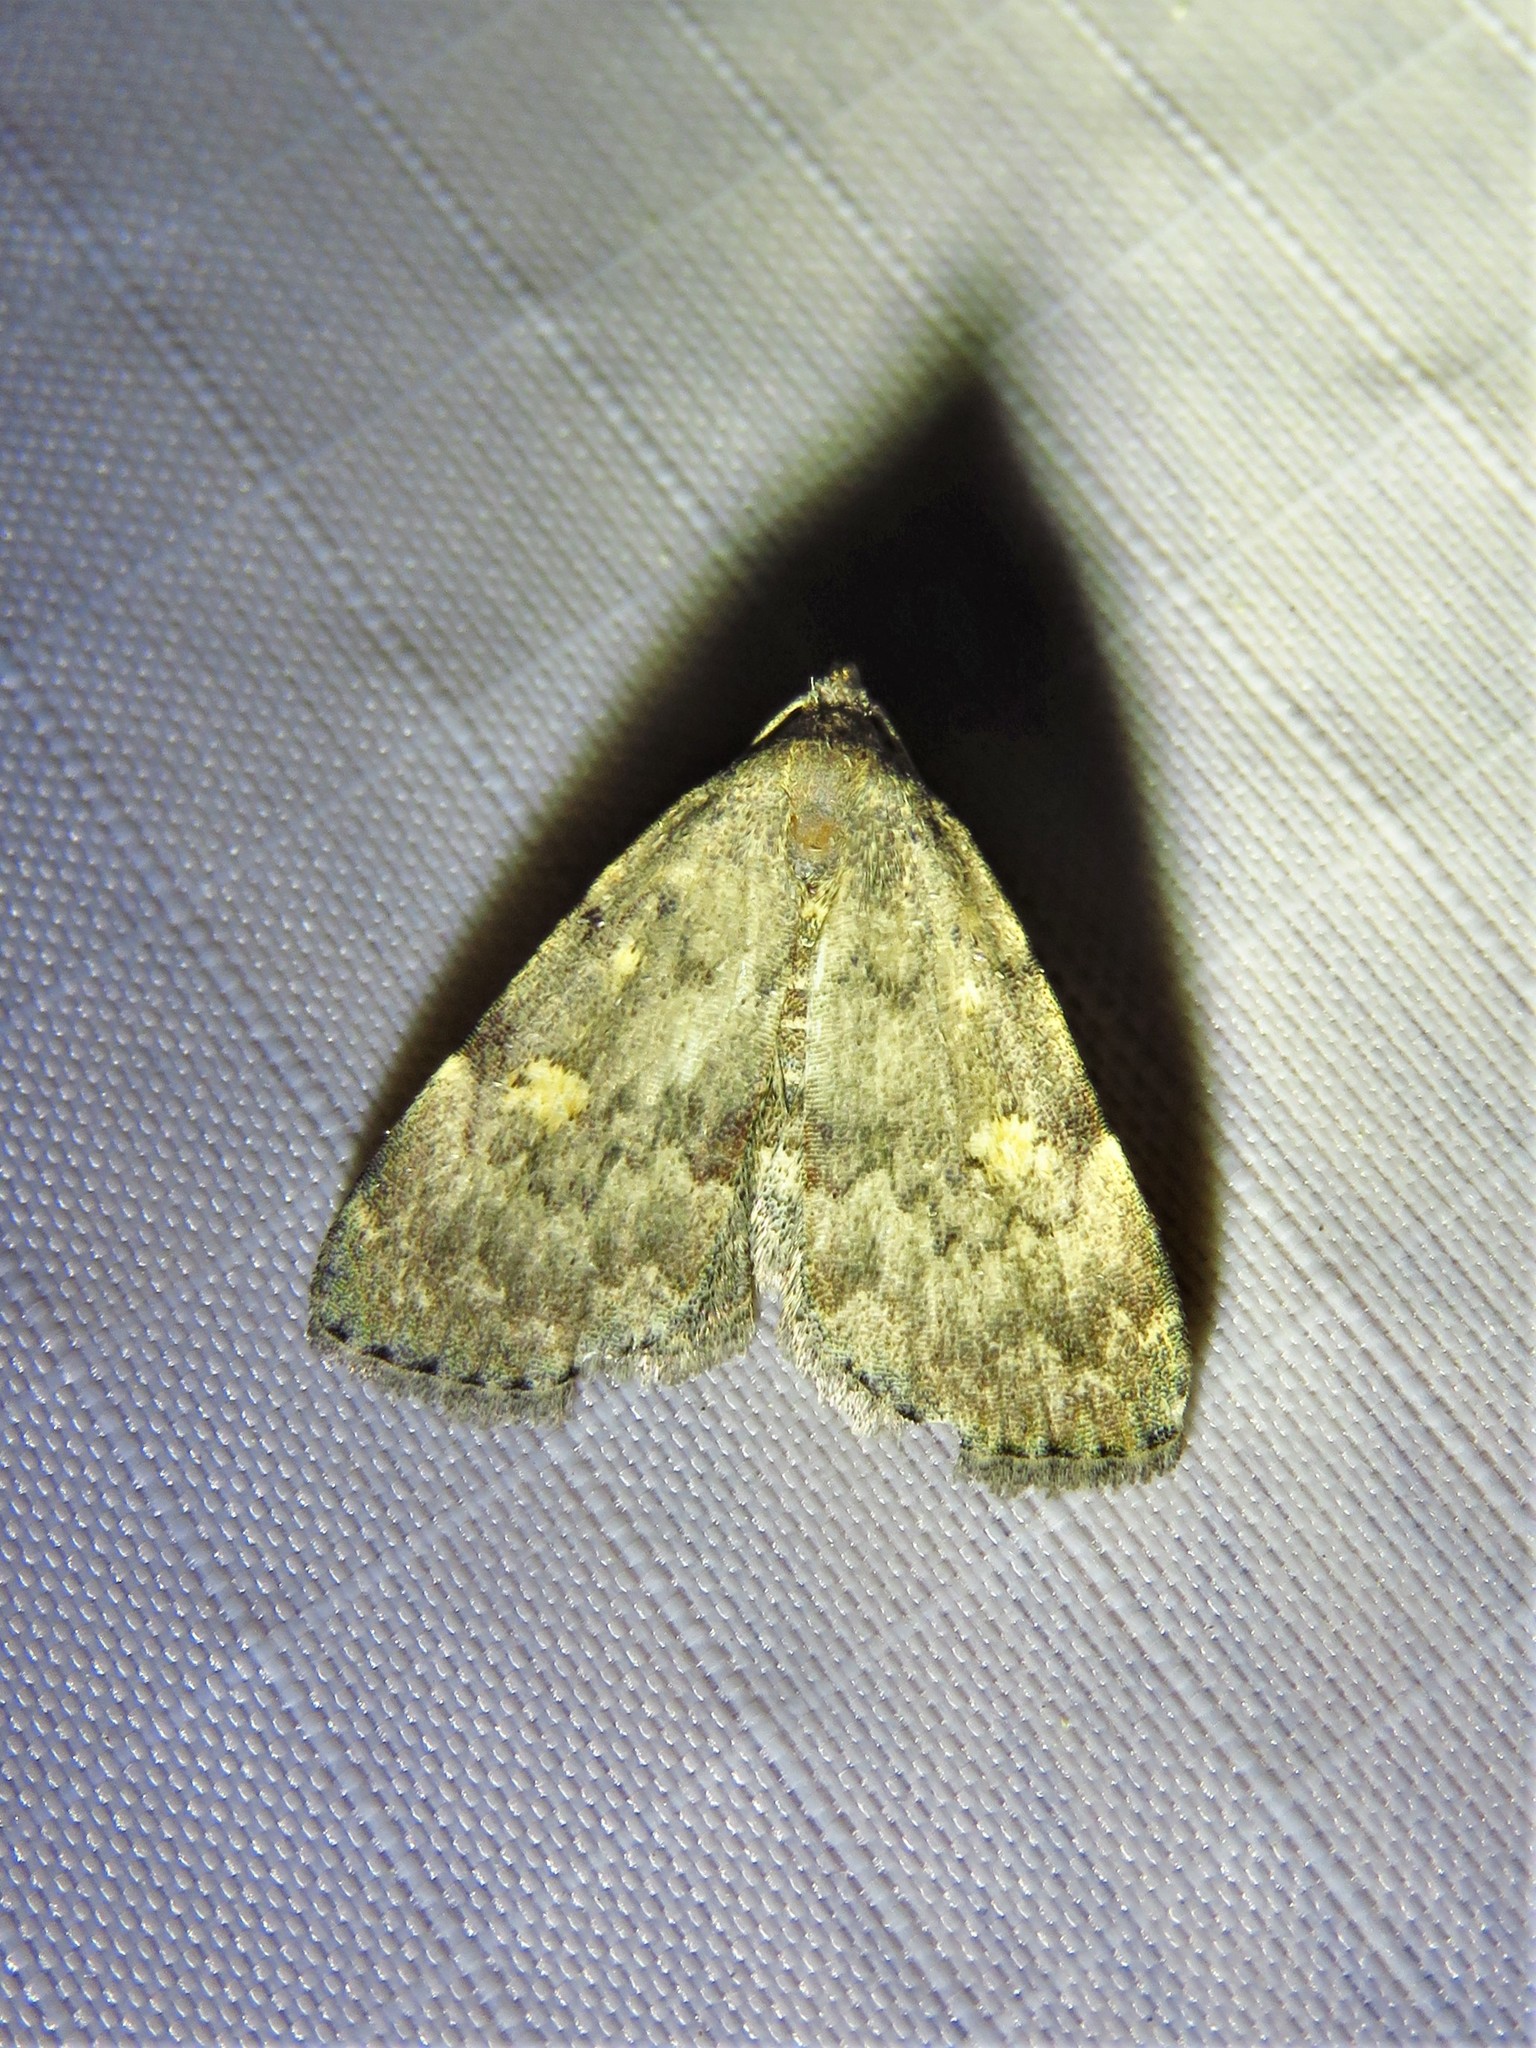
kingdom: Animalia
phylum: Arthropoda
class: Insecta
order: Lepidoptera
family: Erebidae
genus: Idia
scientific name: Idia aemula
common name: Common idia moth
